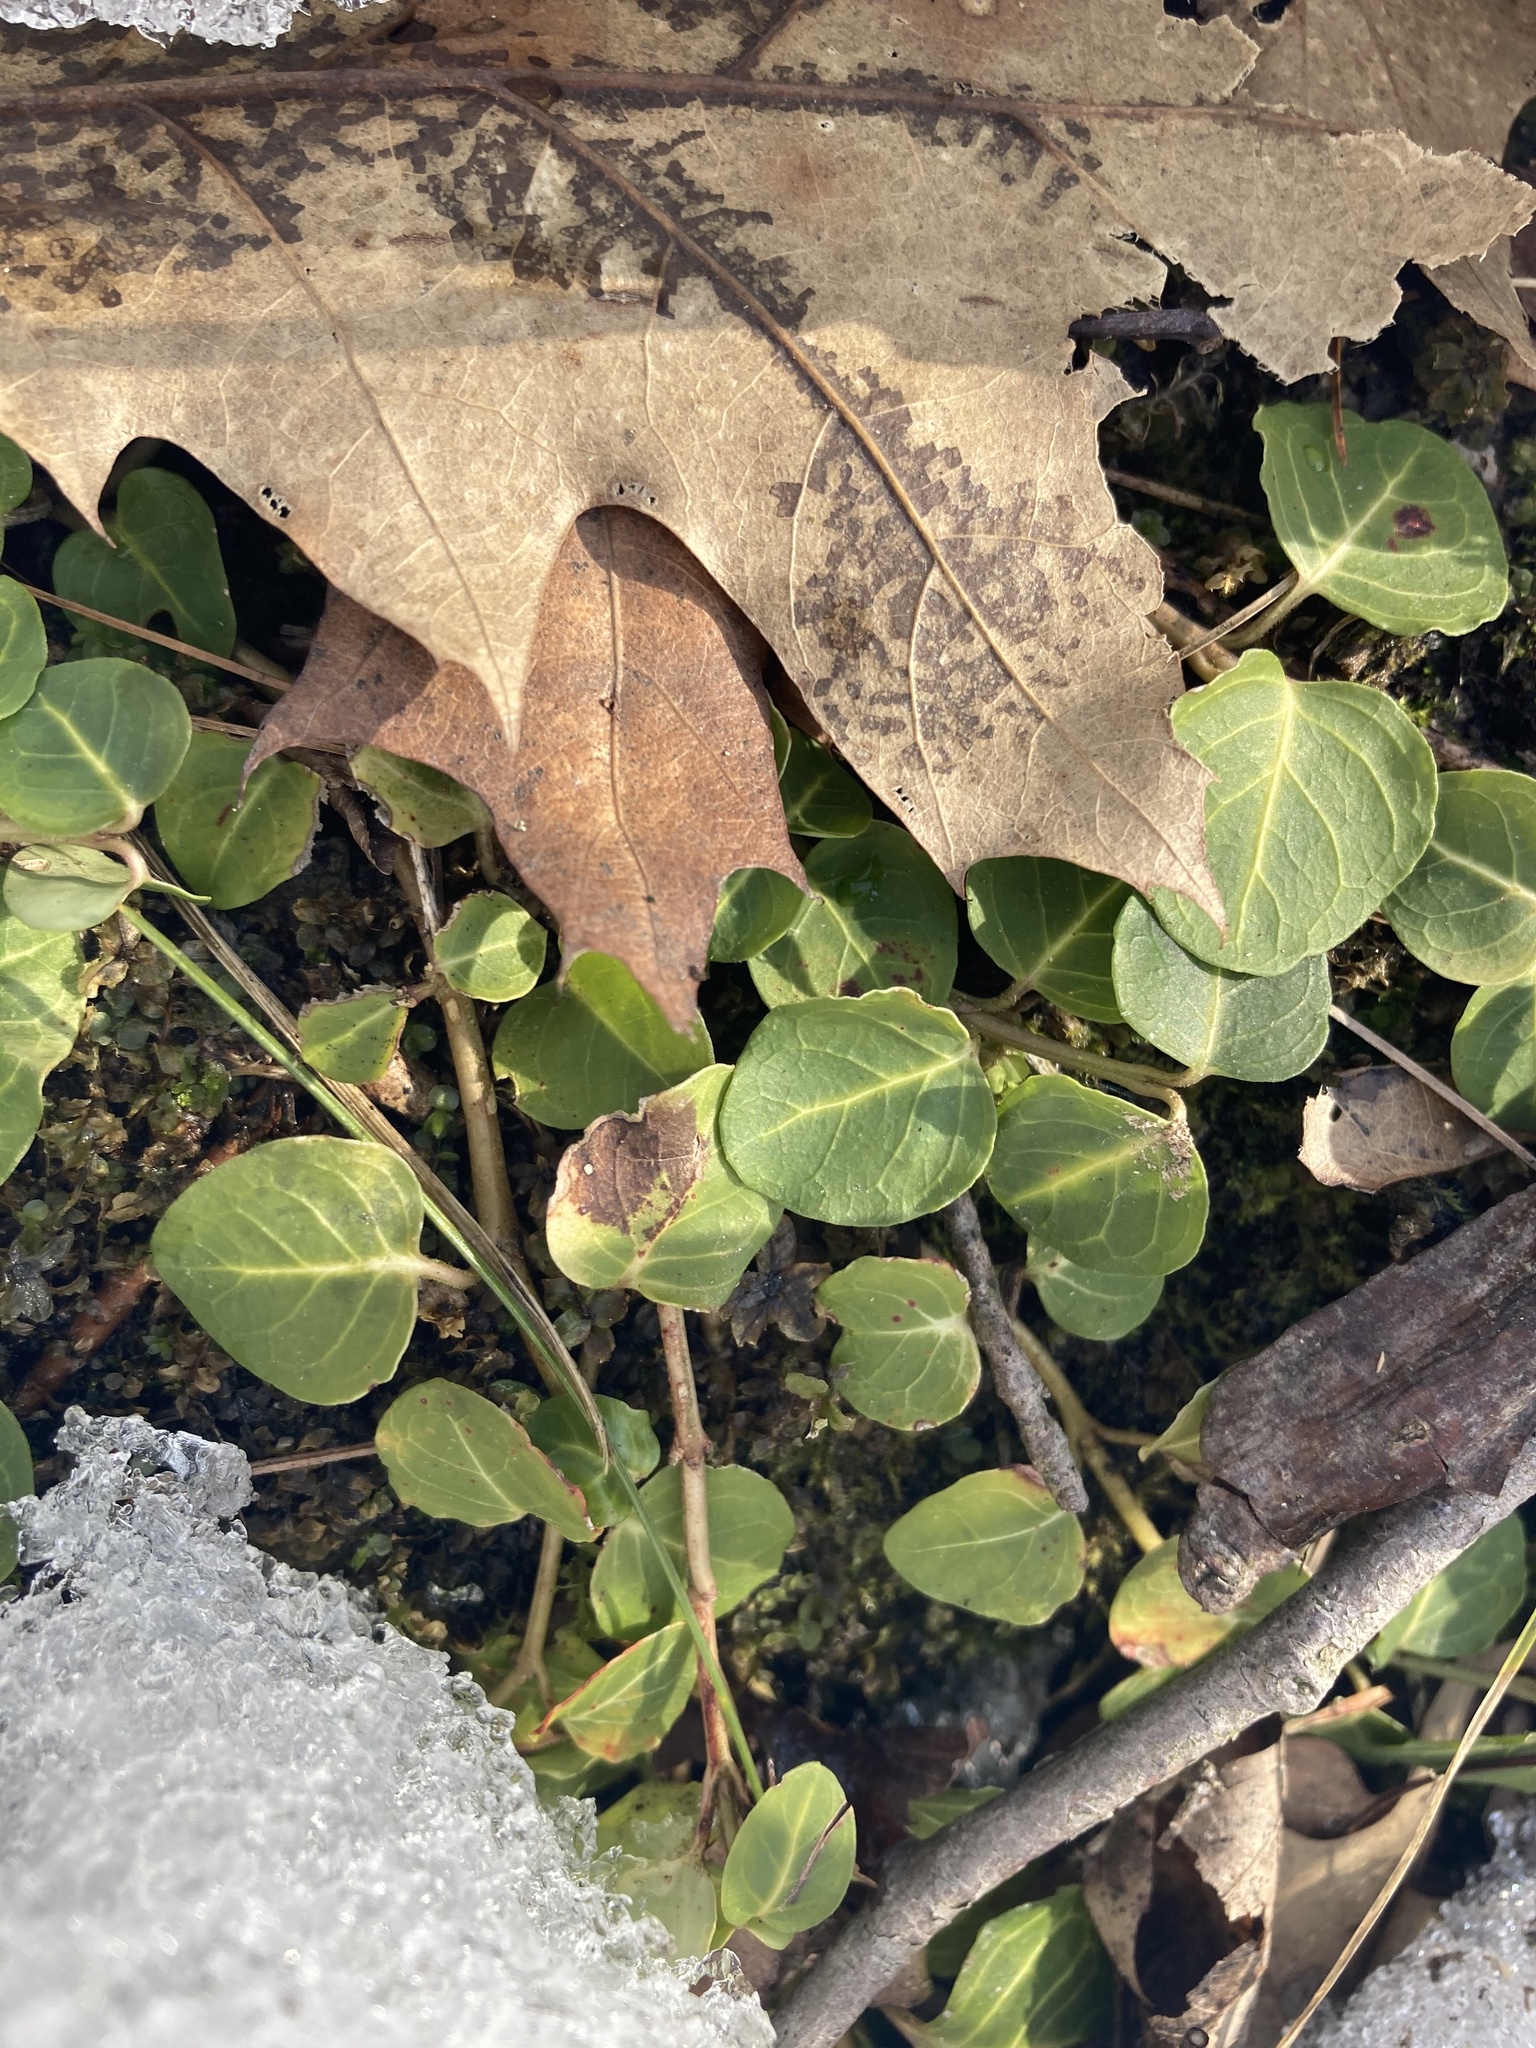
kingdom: Plantae
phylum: Tracheophyta
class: Magnoliopsida
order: Gentianales
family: Rubiaceae
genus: Mitchella
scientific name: Mitchella repens
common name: Partridge-berry
